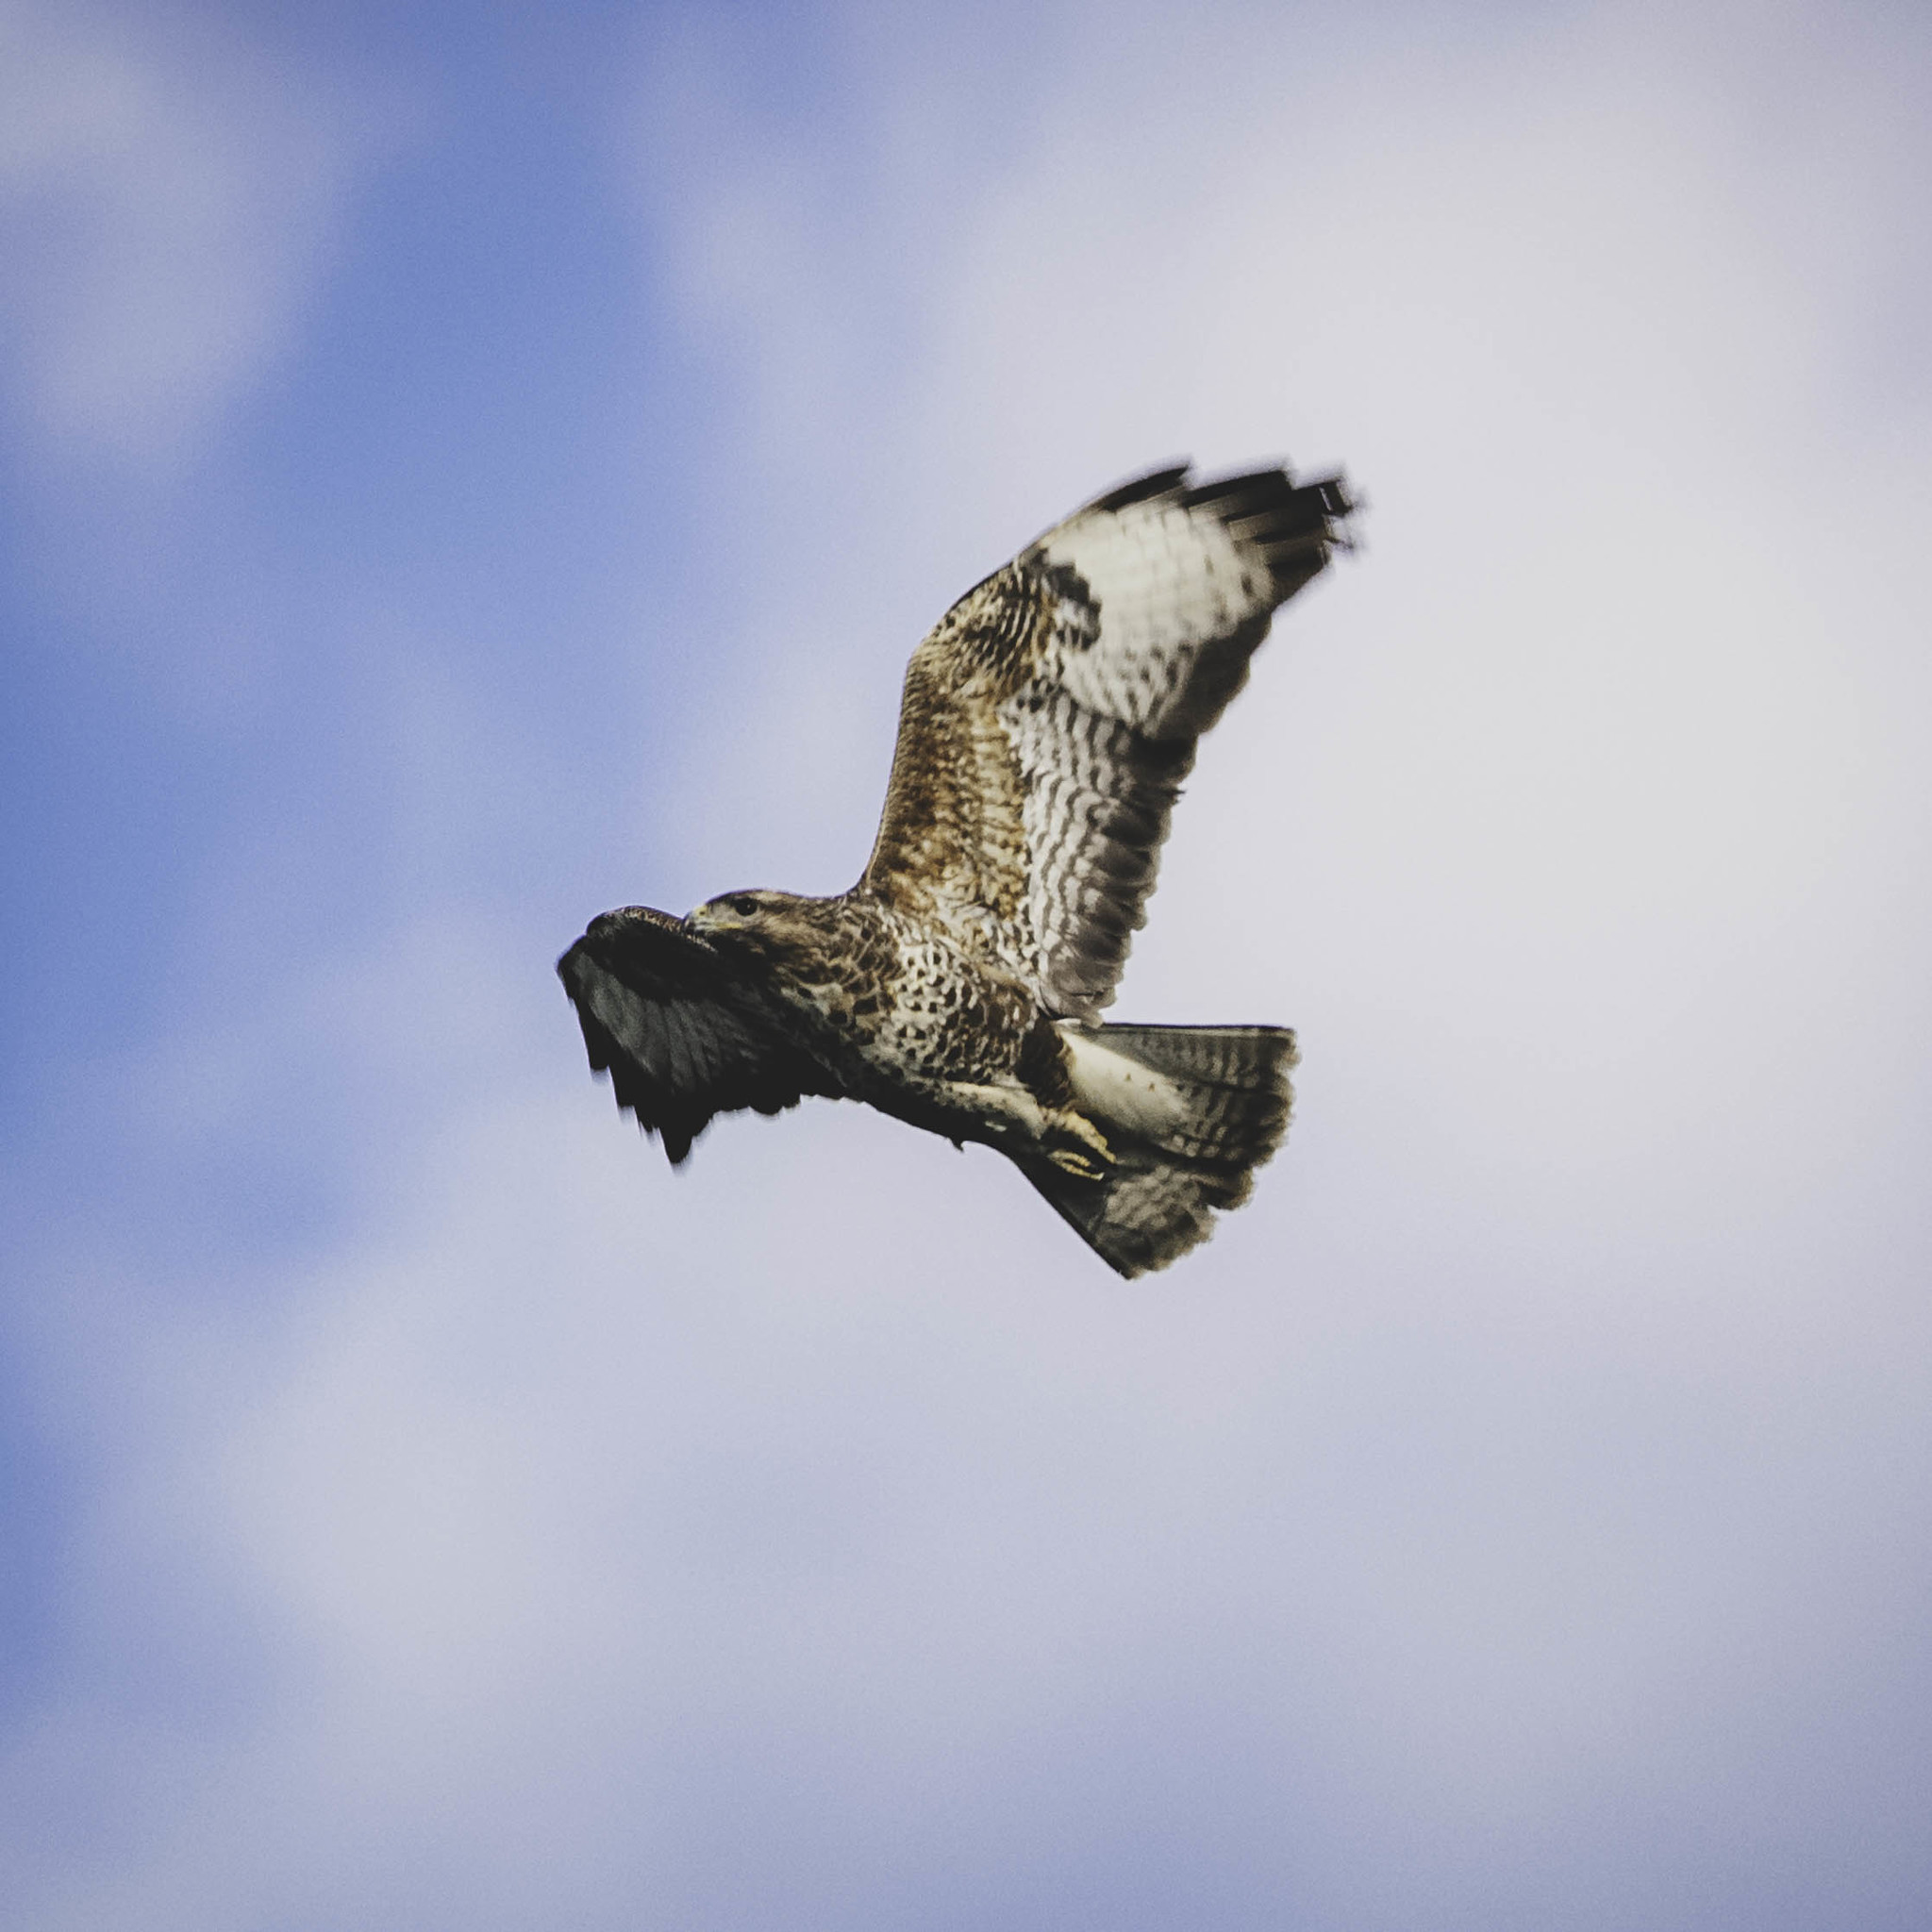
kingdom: Animalia
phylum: Chordata
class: Aves
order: Accipitriformes
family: Accipitridae
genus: Buteo
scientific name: Buteo buteo
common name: Common buzzard
